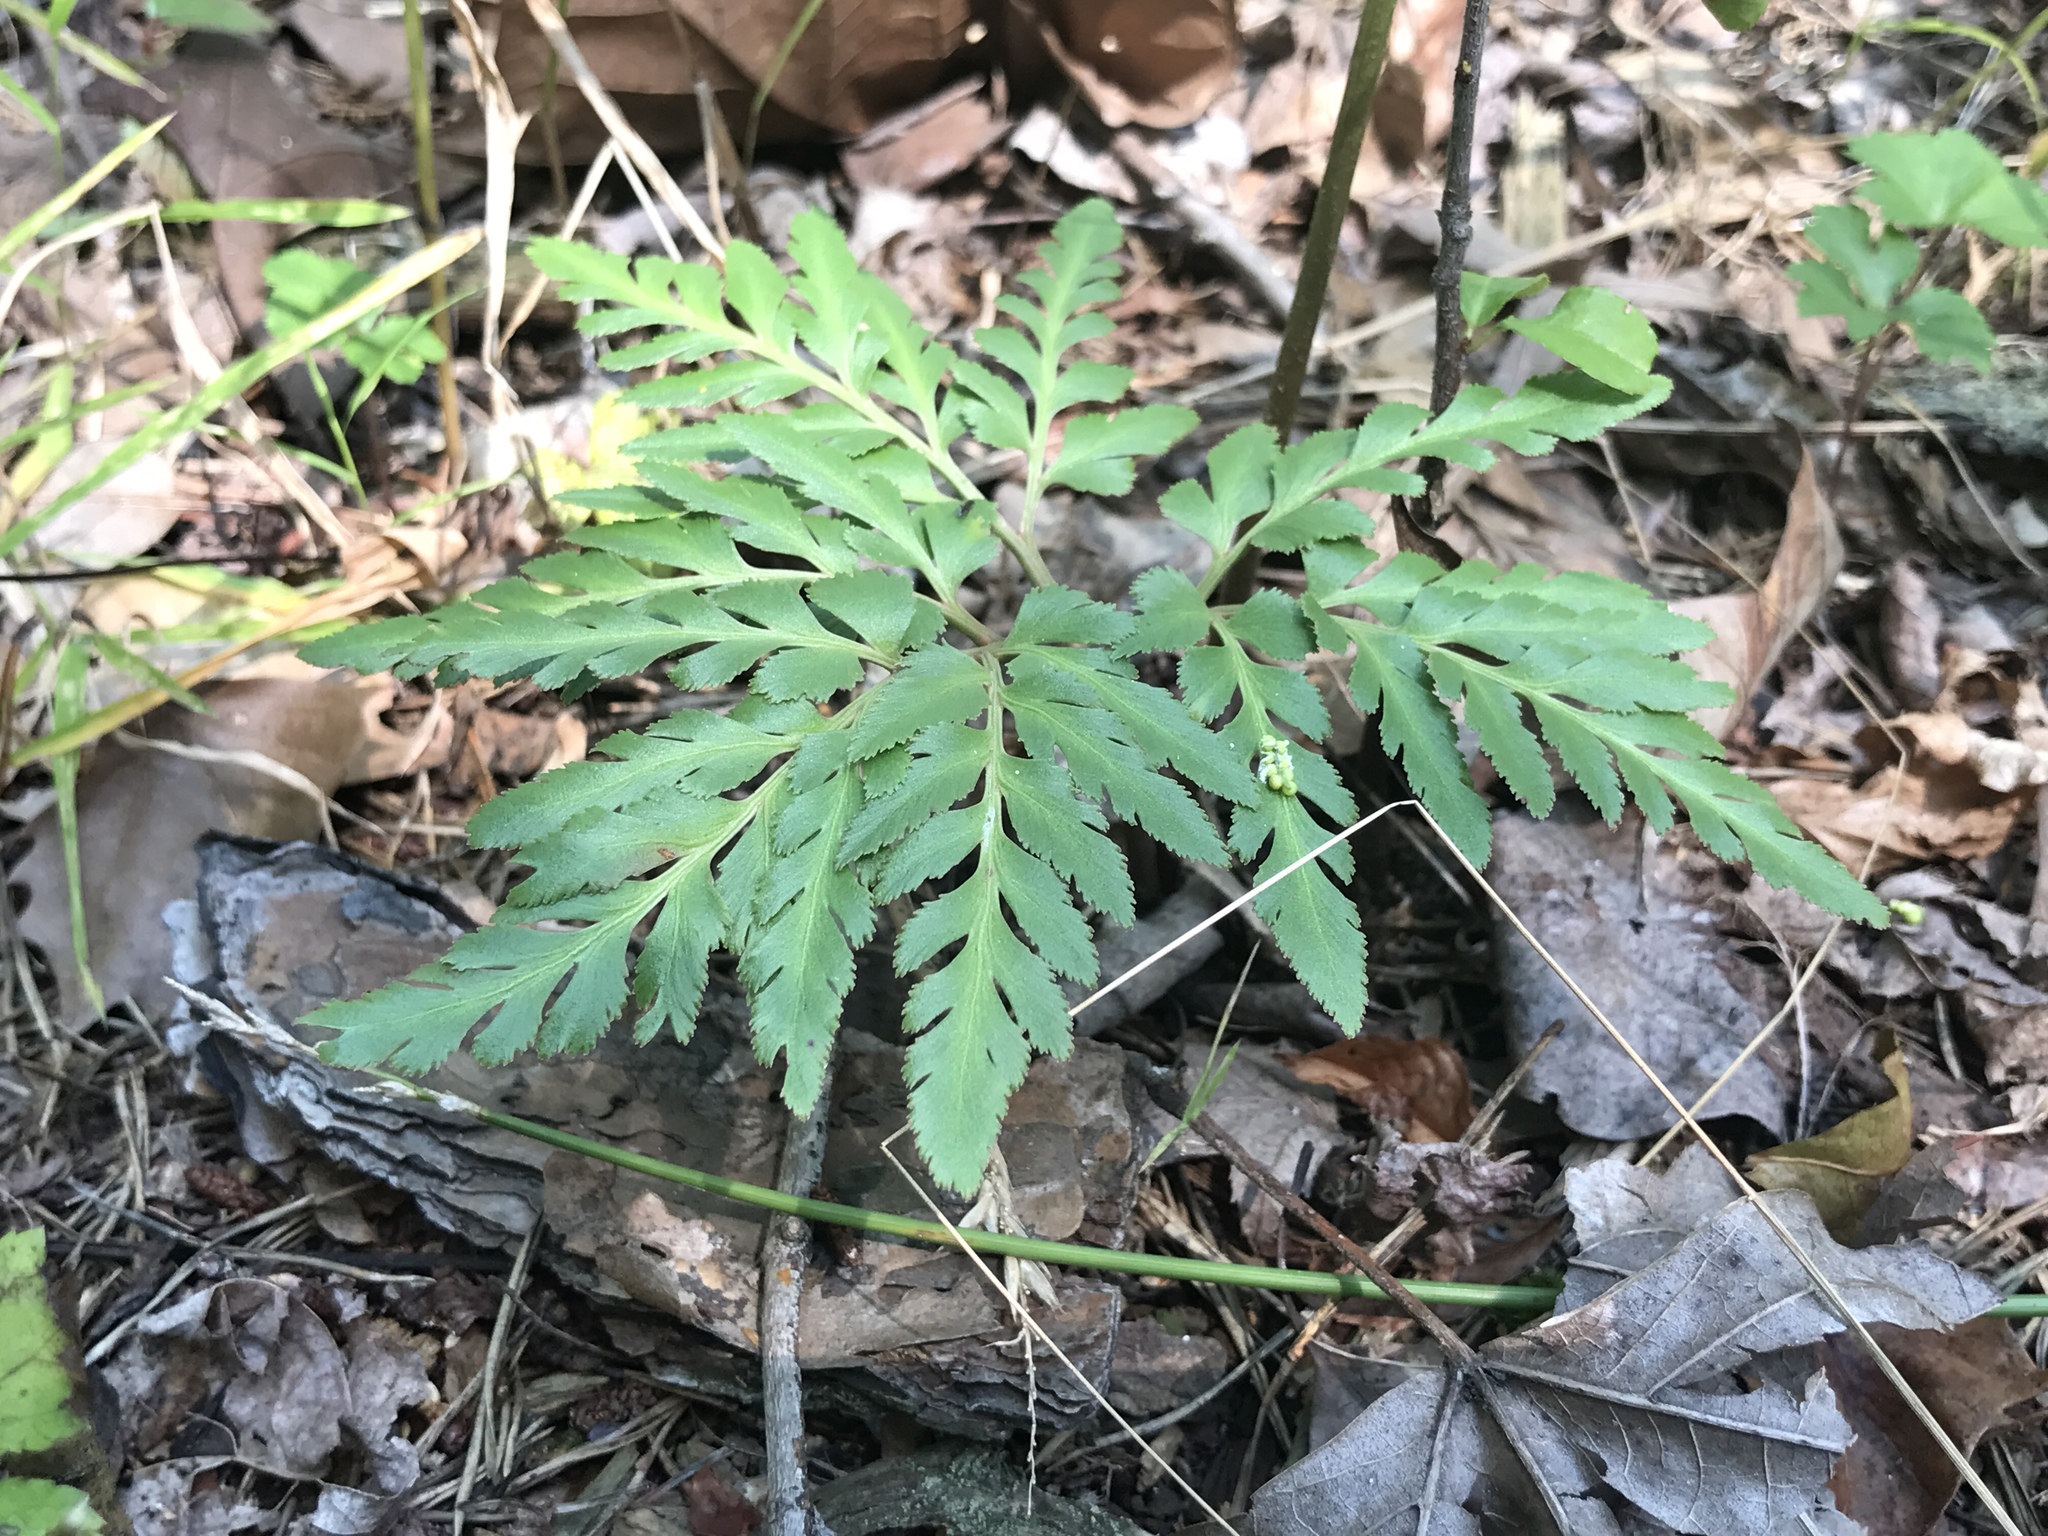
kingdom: Plantae
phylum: Tracheophyta
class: Polypodiopsida
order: Ophioglossales
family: Ophioglossaceae
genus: Sceptridium
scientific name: Sceptridium dissectum
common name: Cut-leaved grapefern
